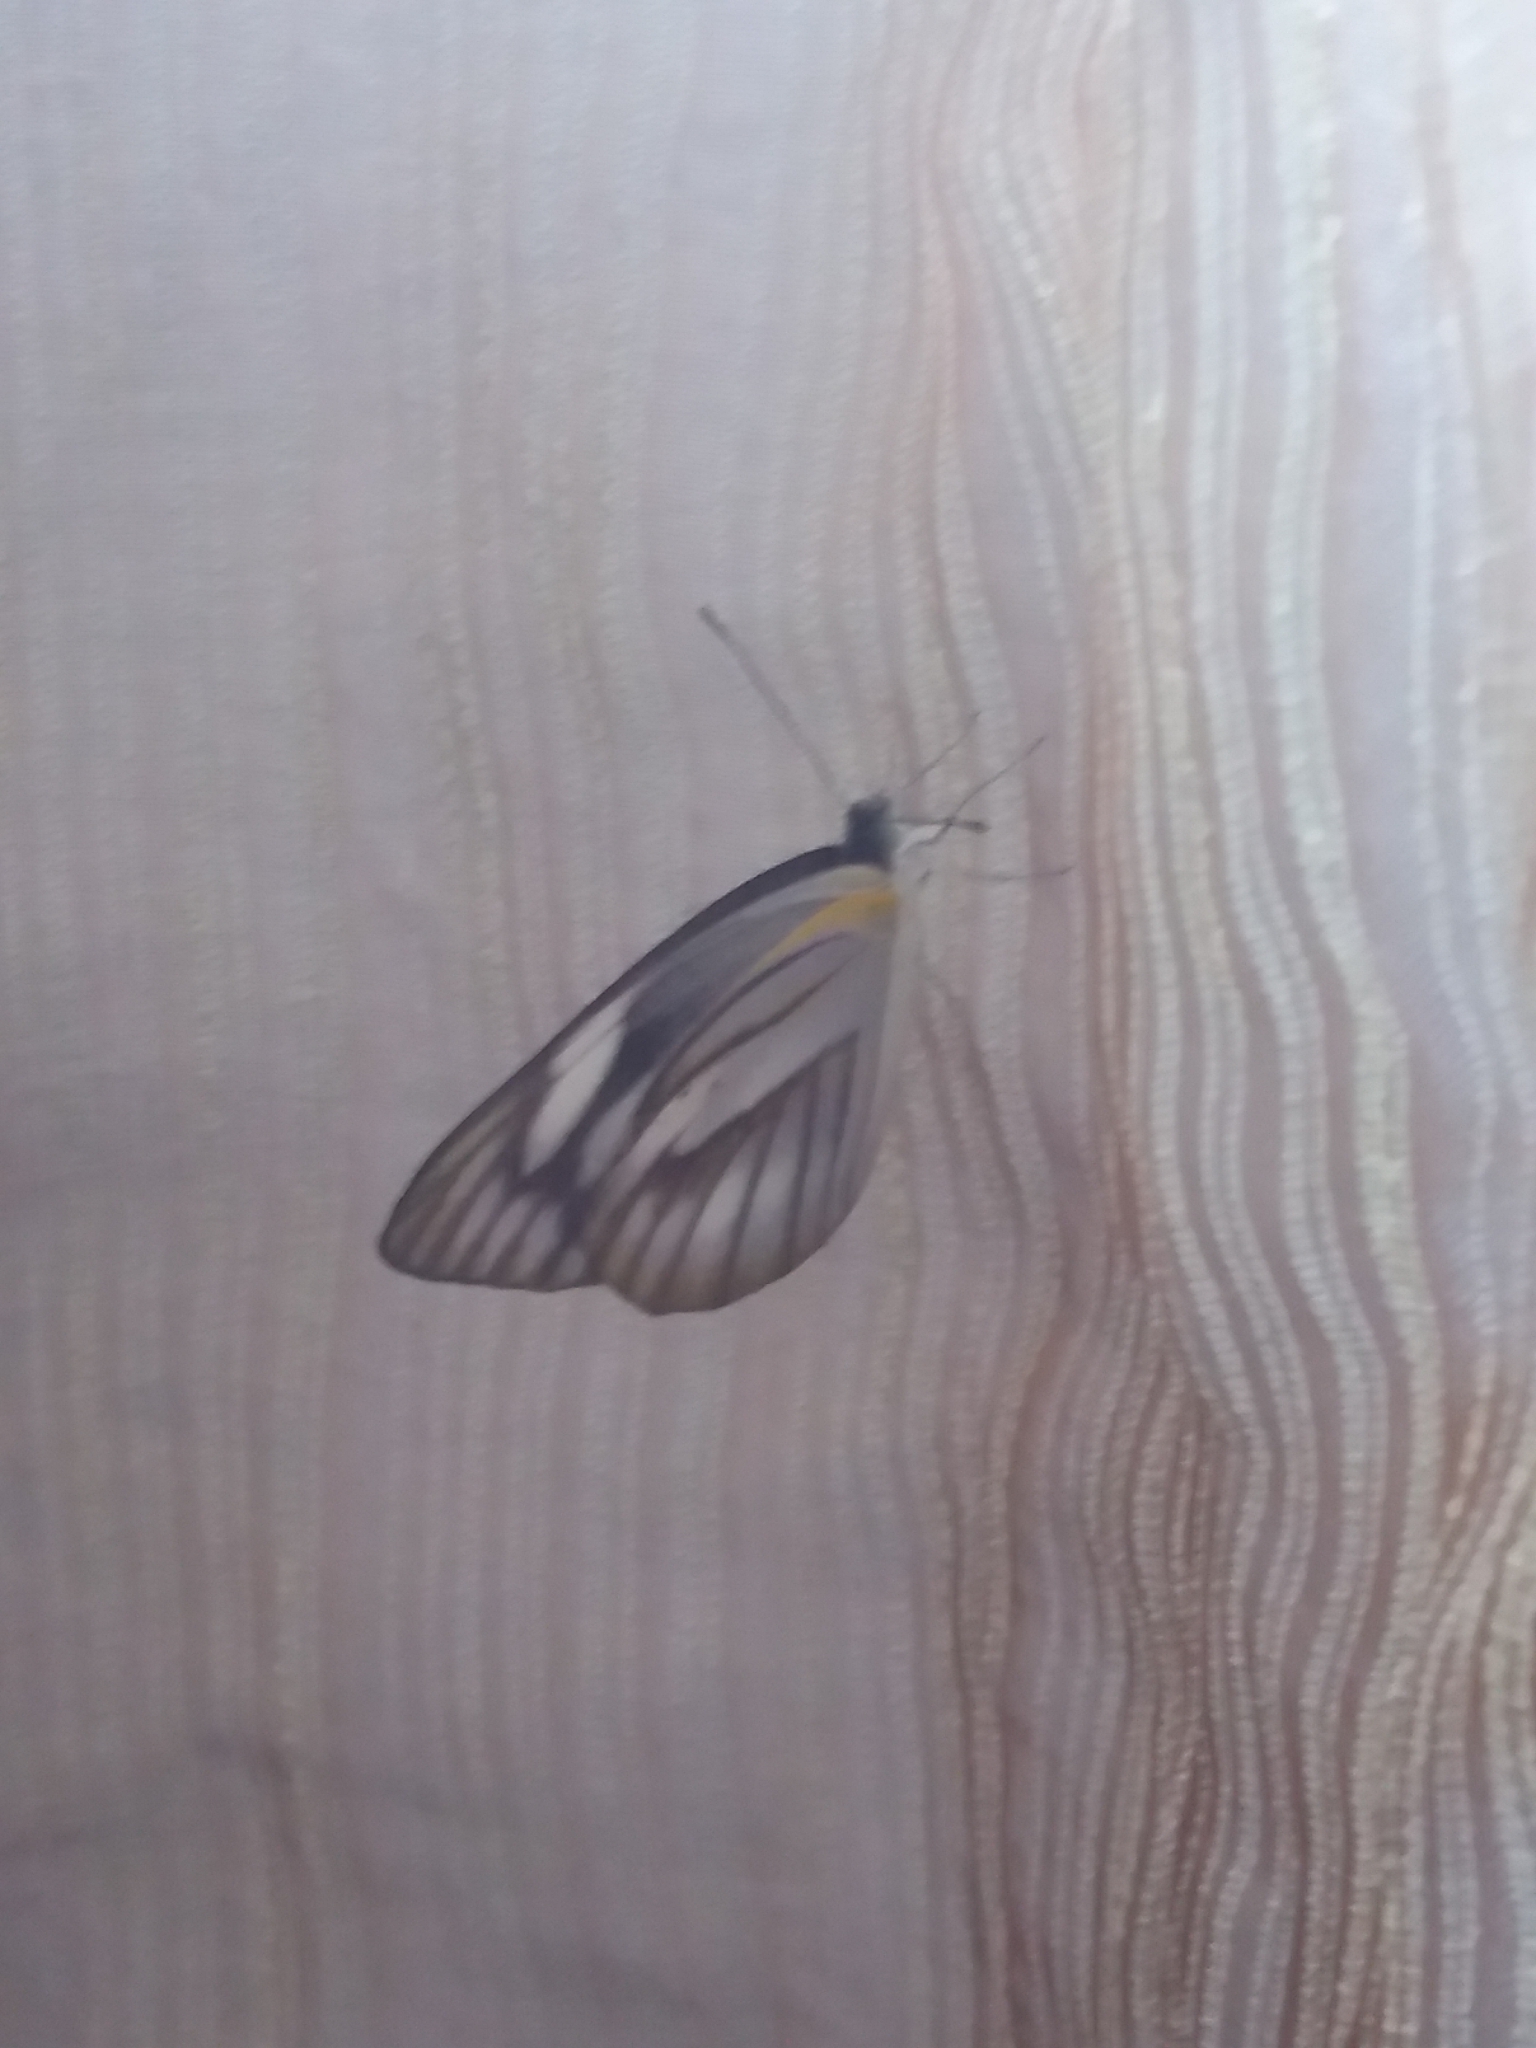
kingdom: Animalia
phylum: Arthropoda
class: Insecta
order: Lepidoptera
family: Pieridae
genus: Appias
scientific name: Appias libythea
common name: Striped albatross
